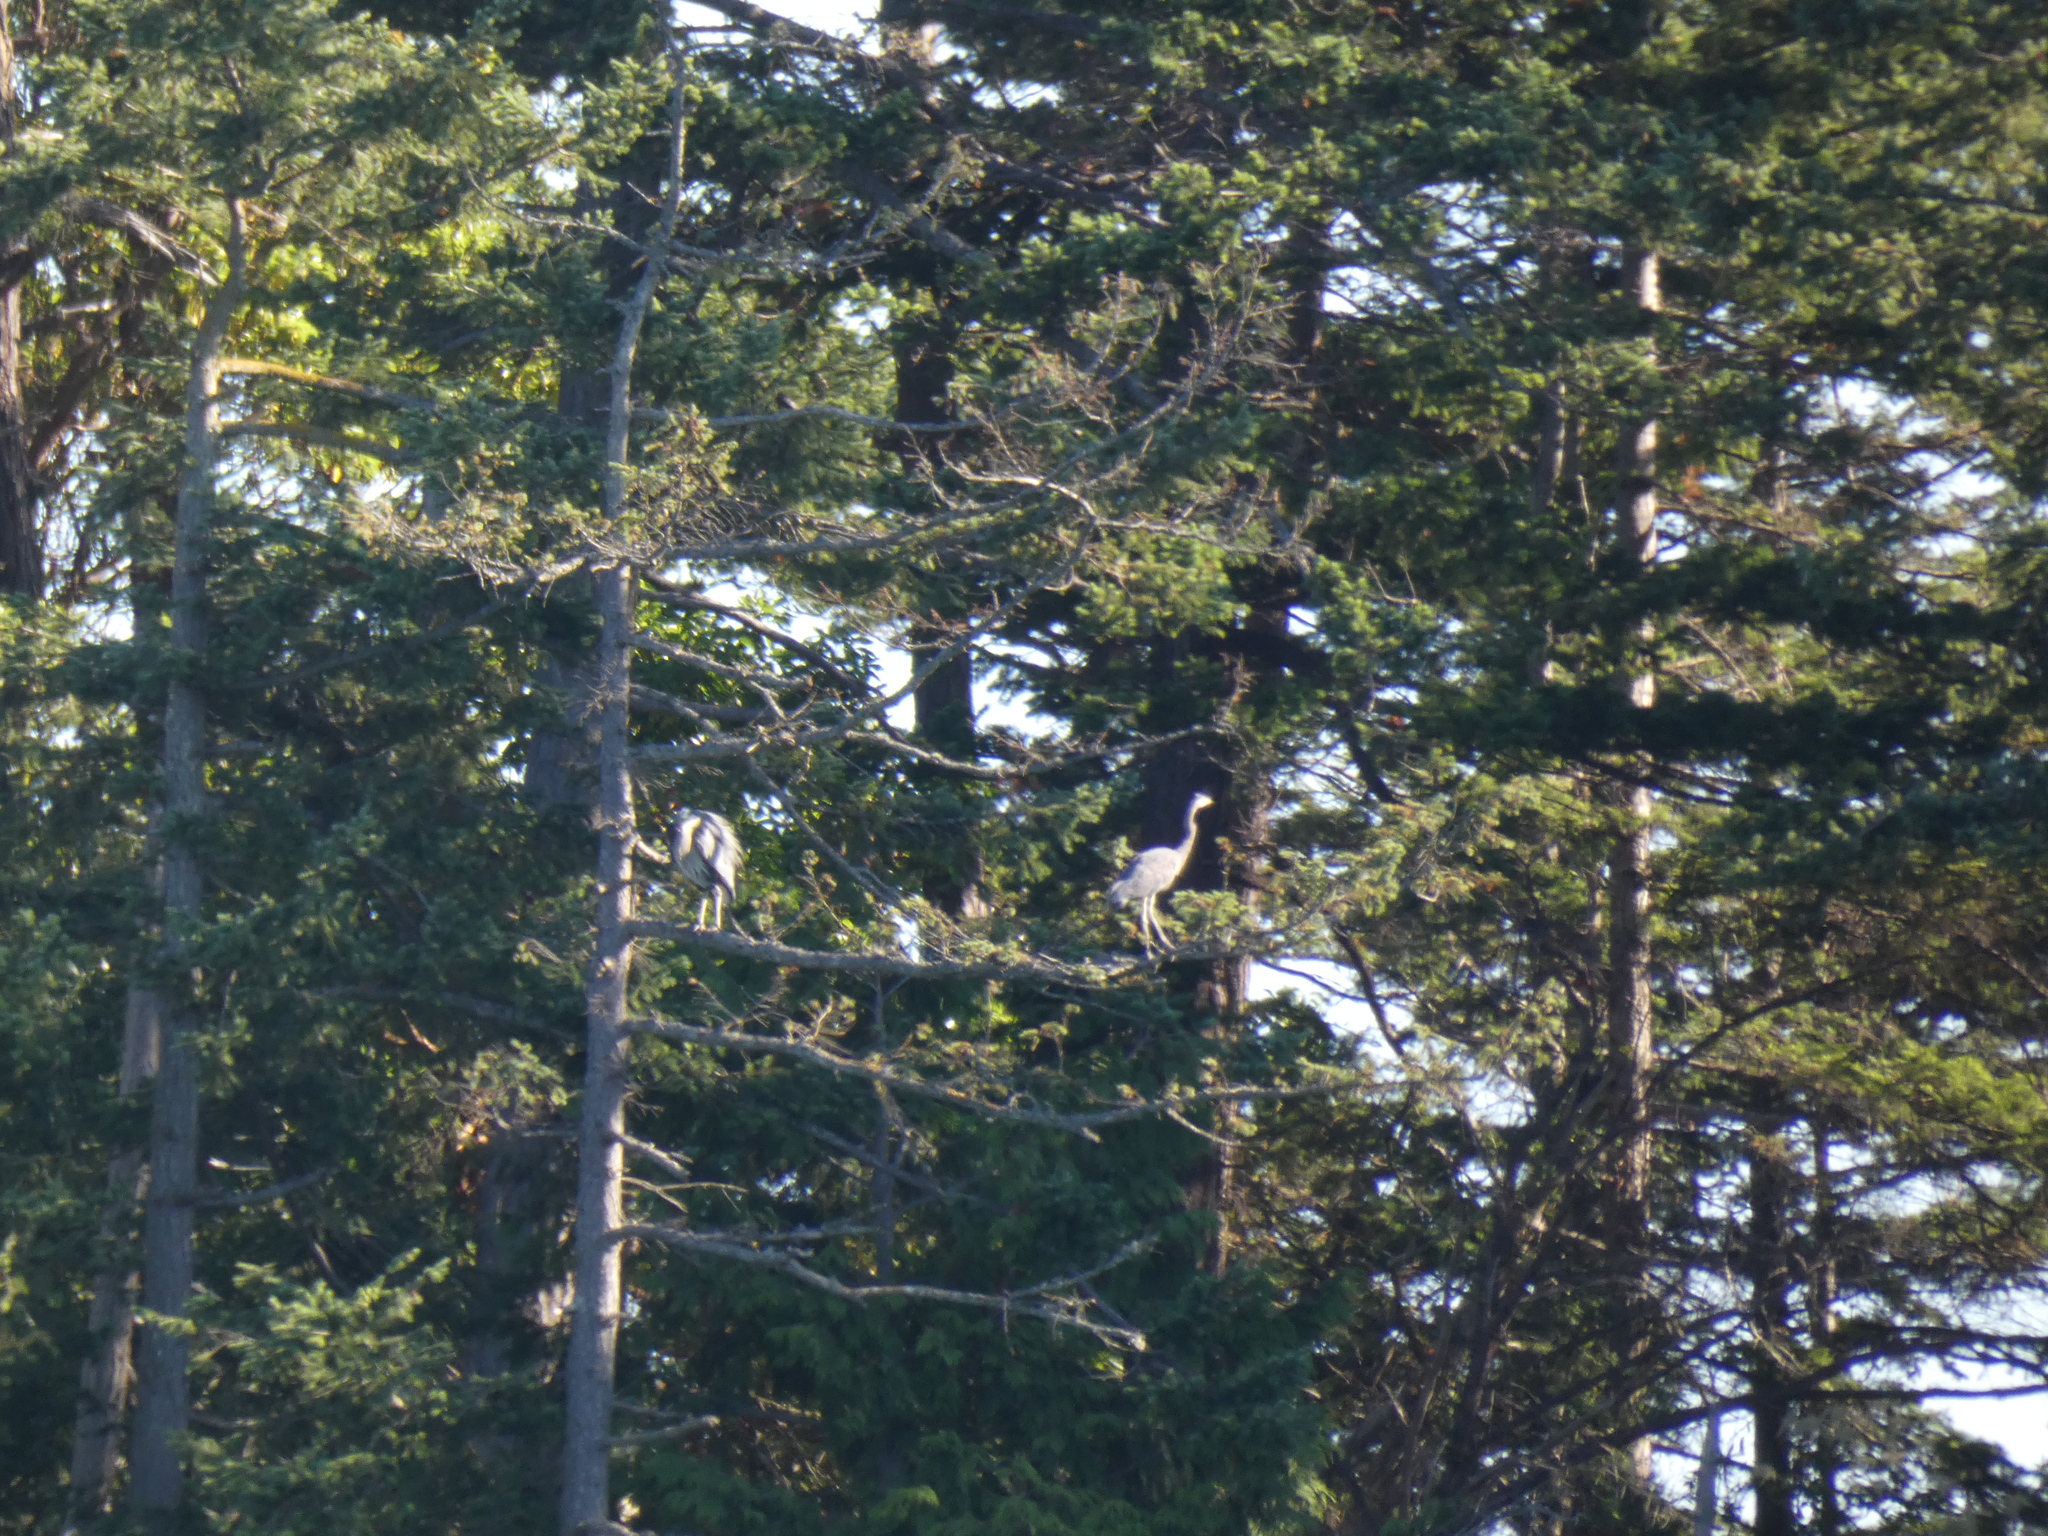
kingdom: Animalia
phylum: Chordata
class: Aves
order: Pelecaniformes
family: Ardeidae
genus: Ardea
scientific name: Ardea herodias
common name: Great blue heron
